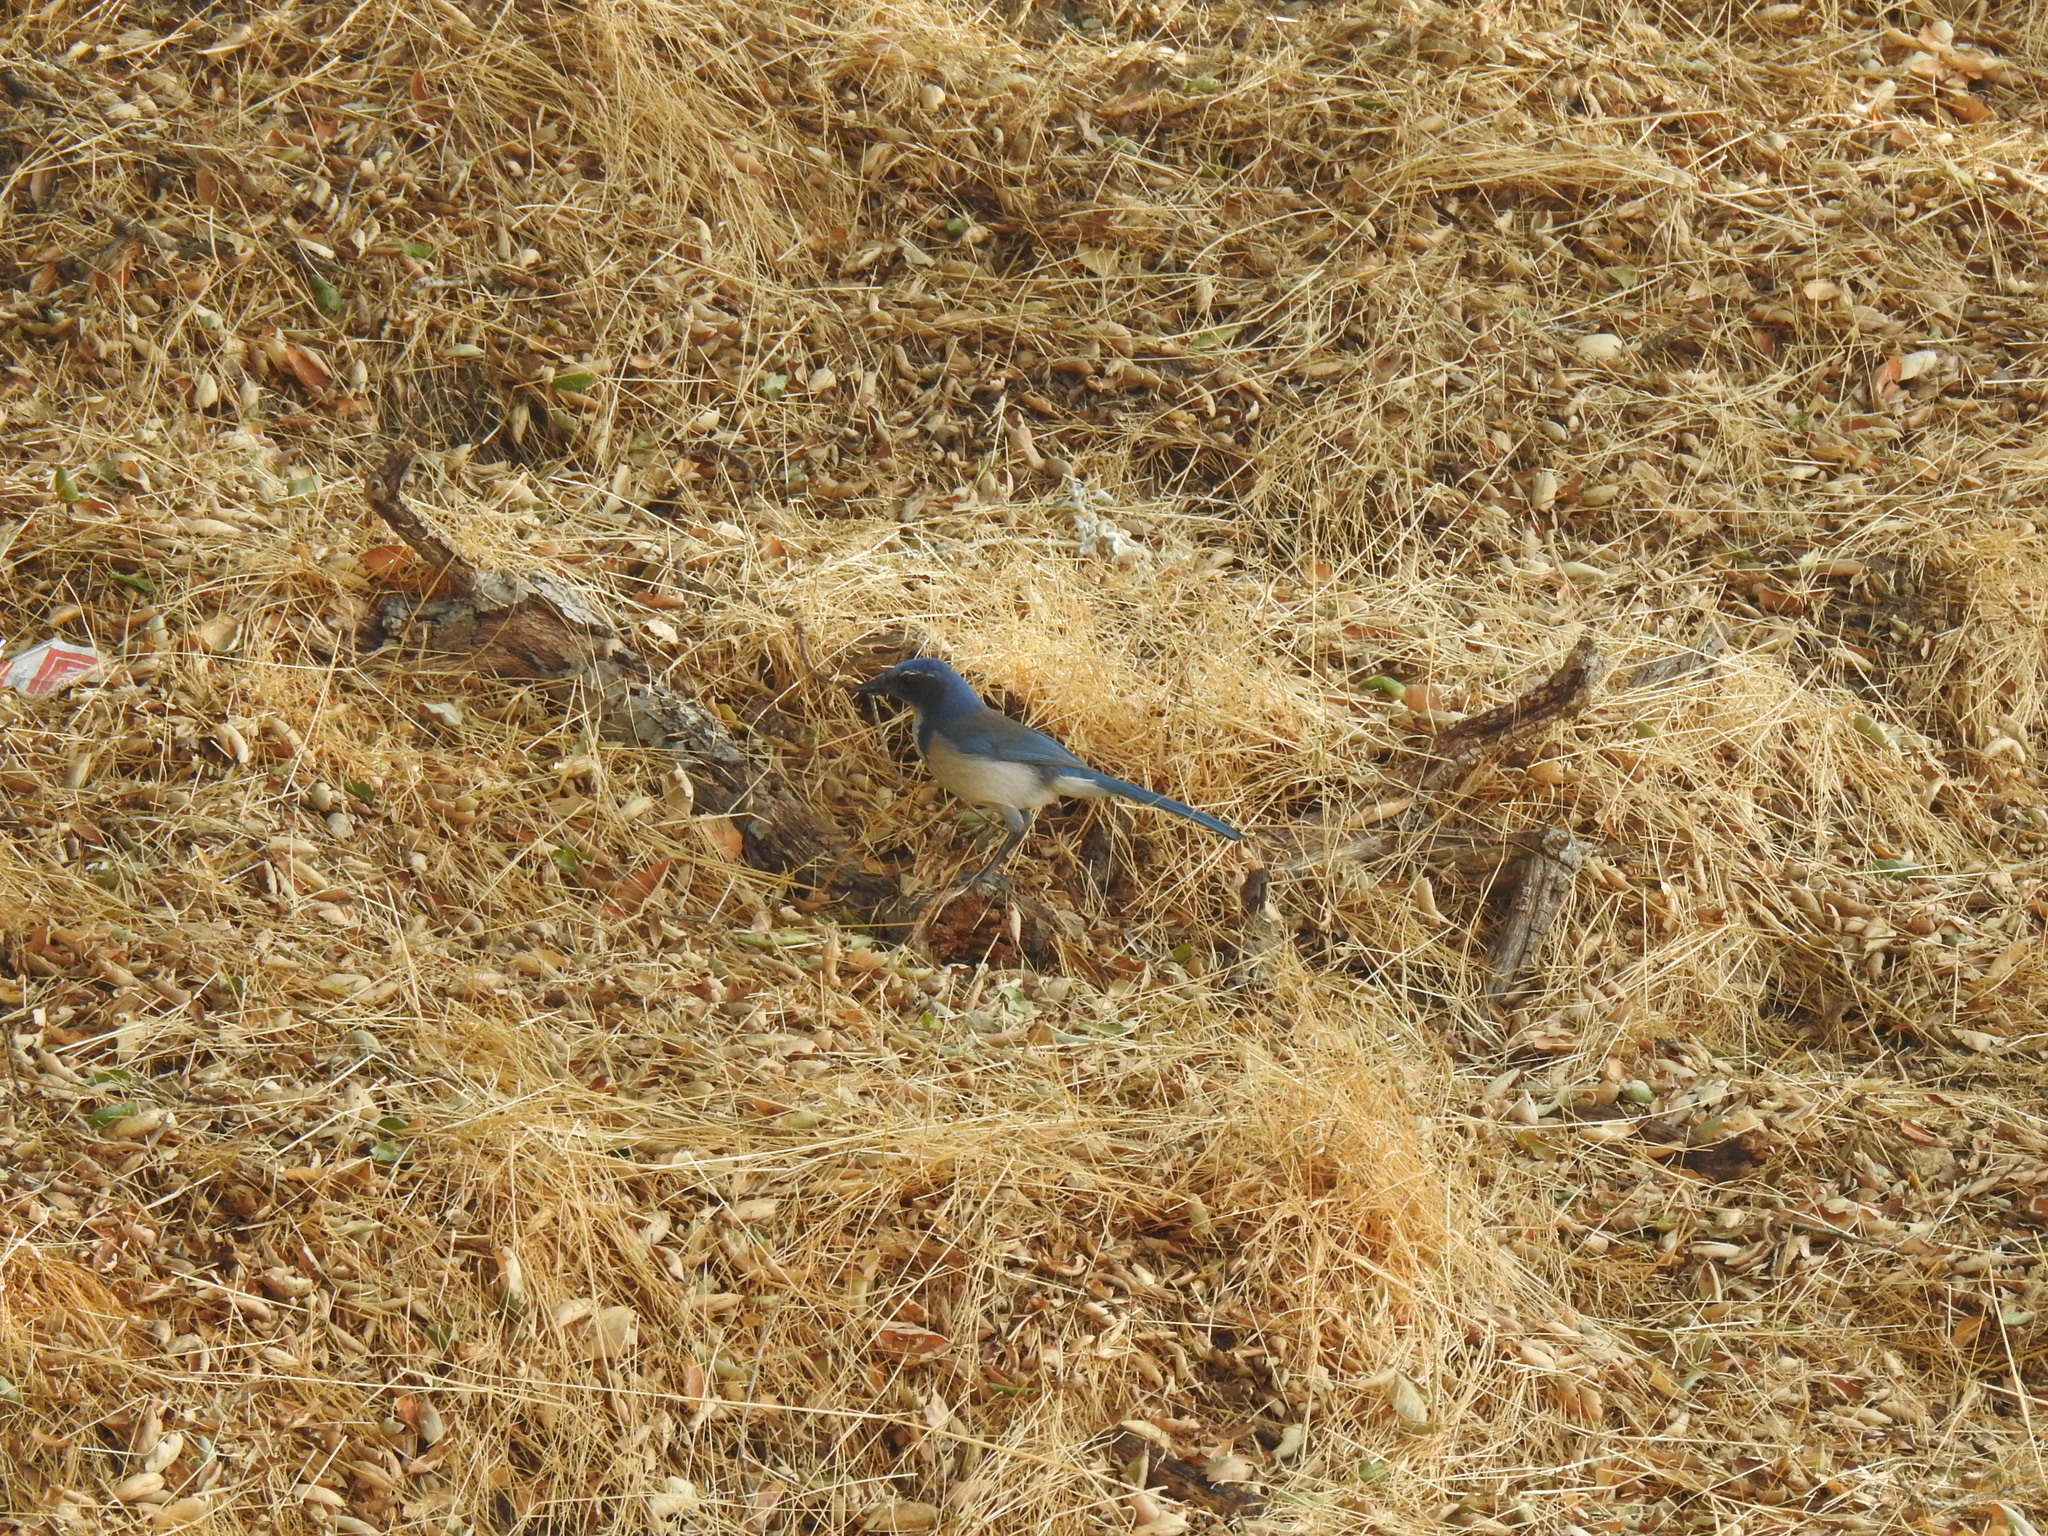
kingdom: Animalia
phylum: Chordata
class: Aves
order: Passeriformes
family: Corvidae
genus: Aphelocoma
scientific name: Aphelocoma californica
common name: California scrub-jay
